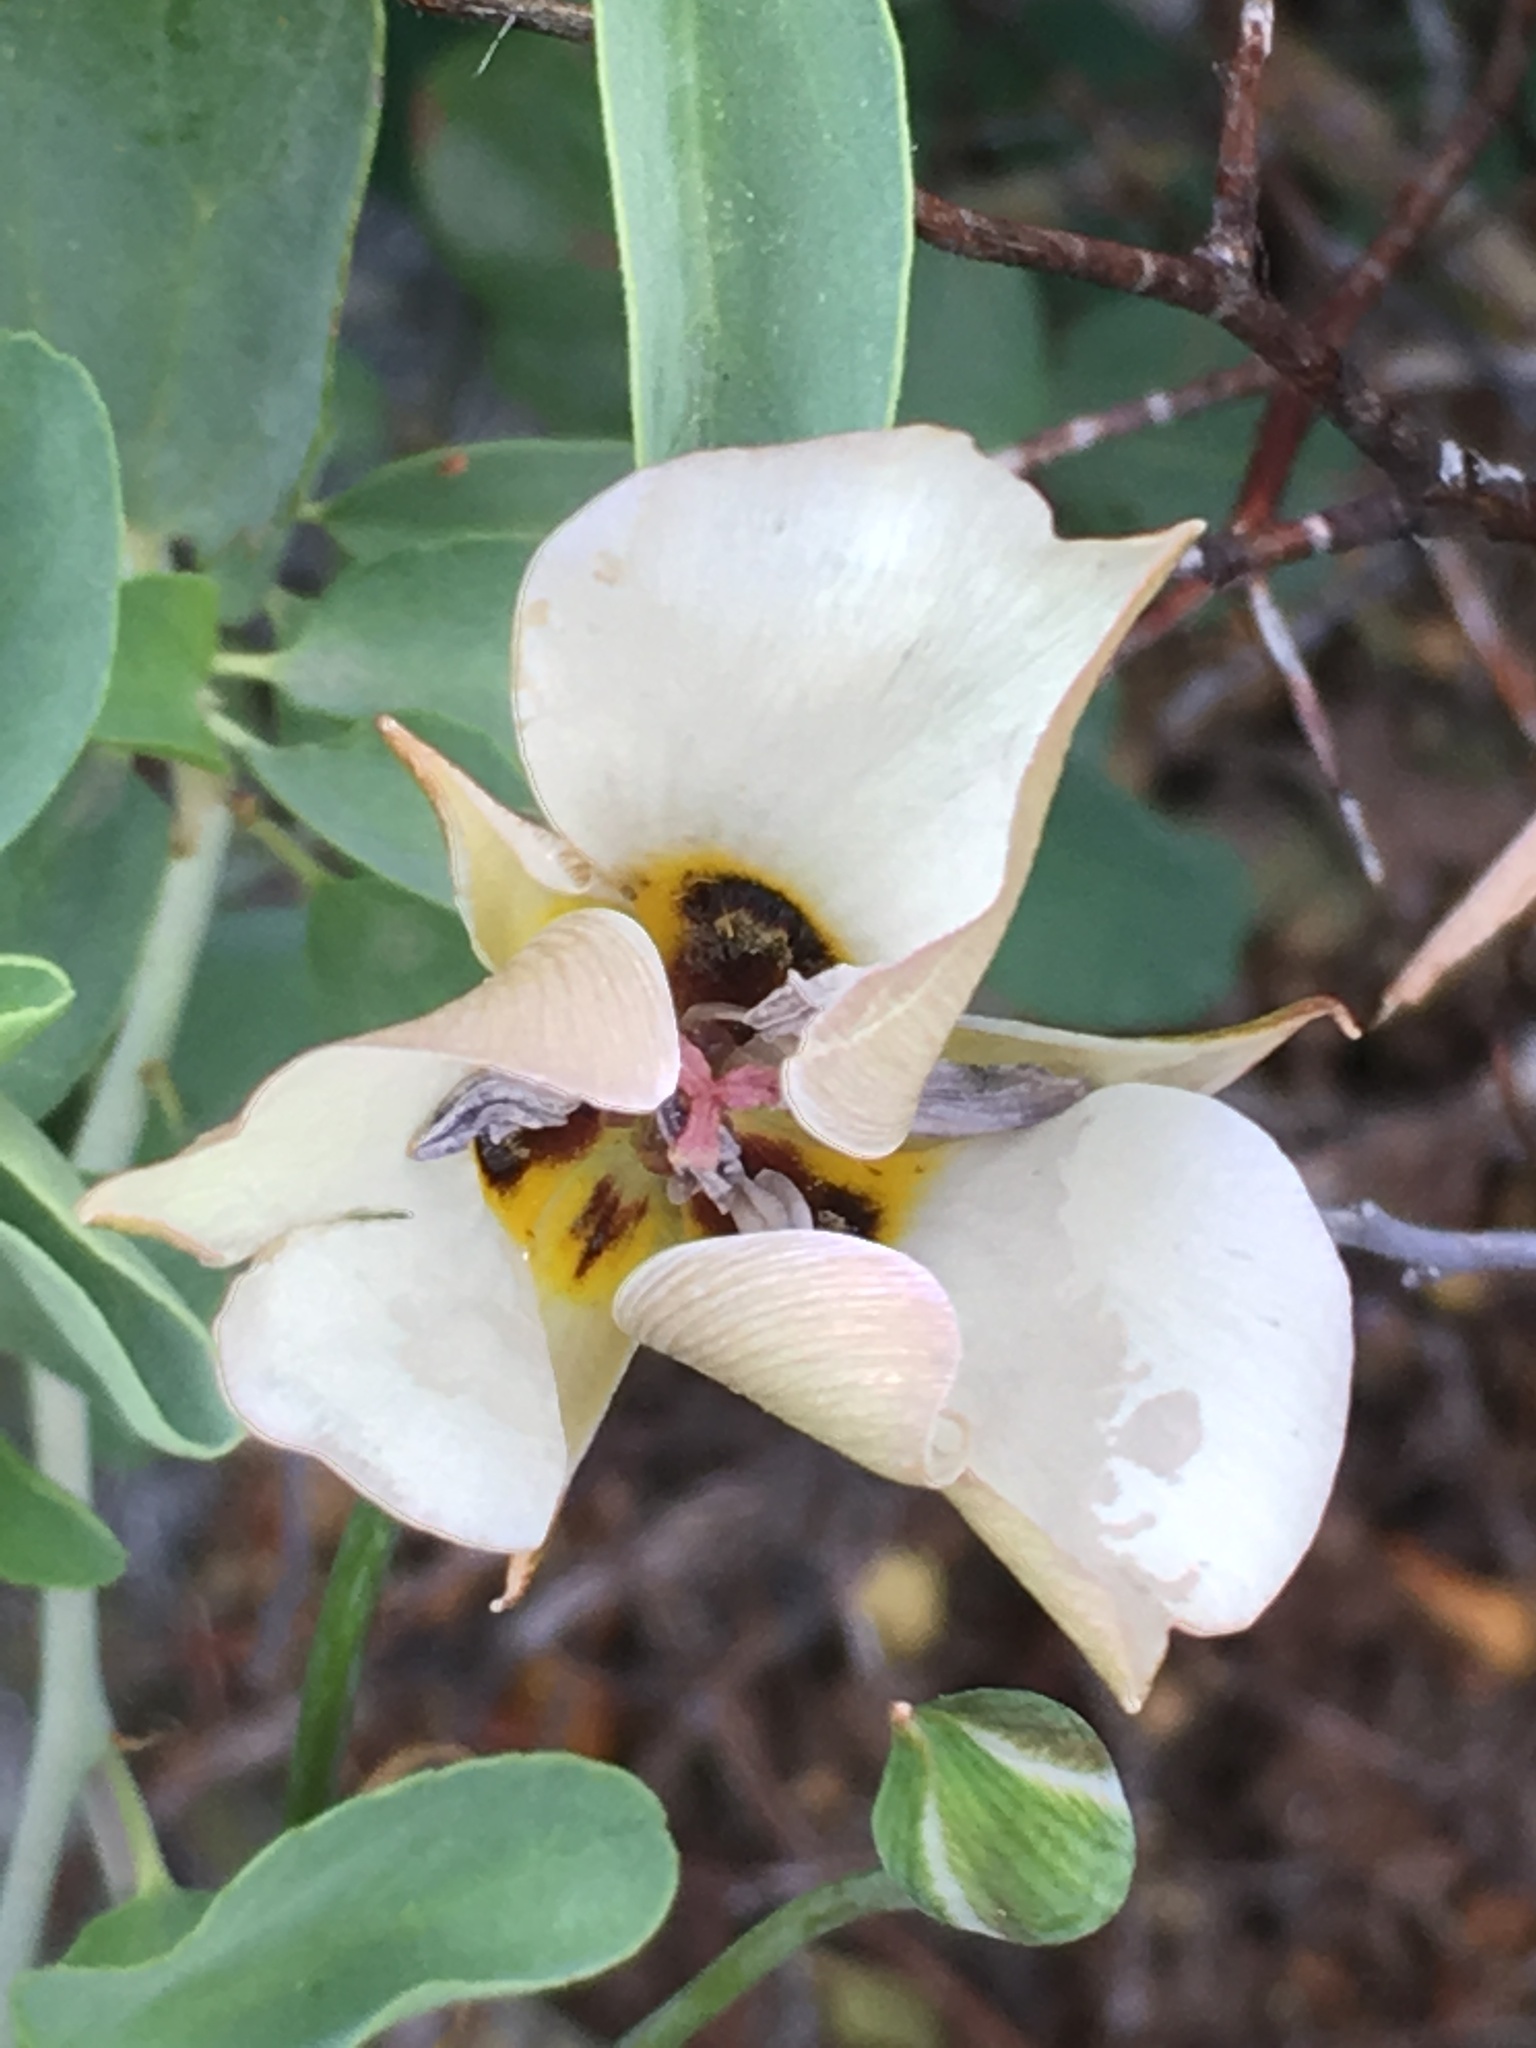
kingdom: Plantae
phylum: Tracheophyta
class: Liliopsida
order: Liliales
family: Liliaceae
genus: Calochortus
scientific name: Calochortus bruneaunis
